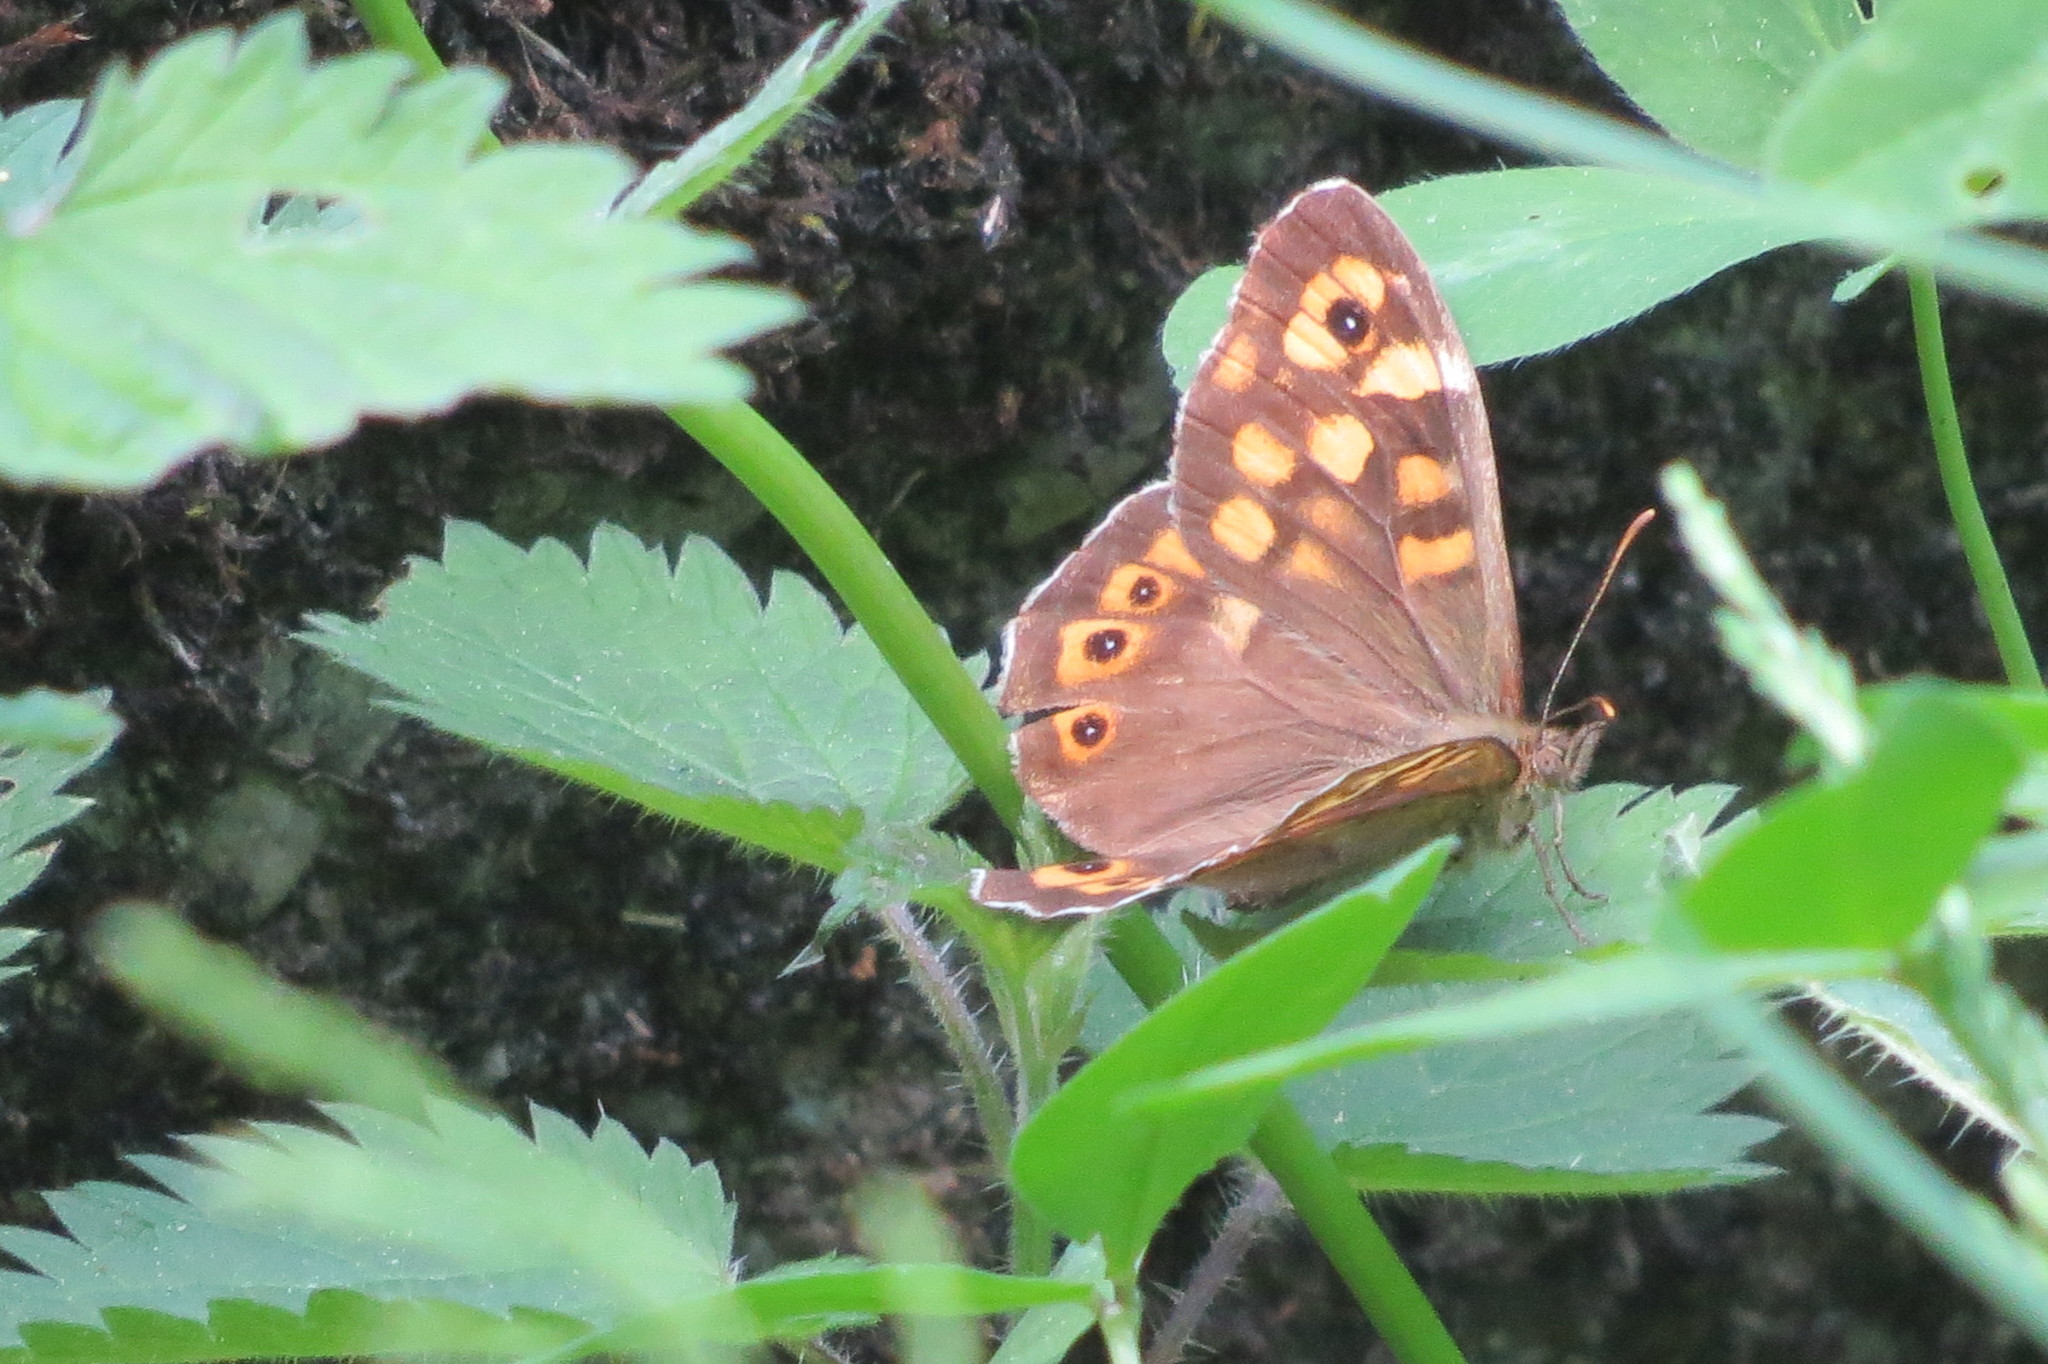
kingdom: Animalia
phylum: Arthropoda
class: Insecta
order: Lepidoptera
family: Nymphalidae
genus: Pararge
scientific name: Pararge aegeria
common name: Speckled wood
